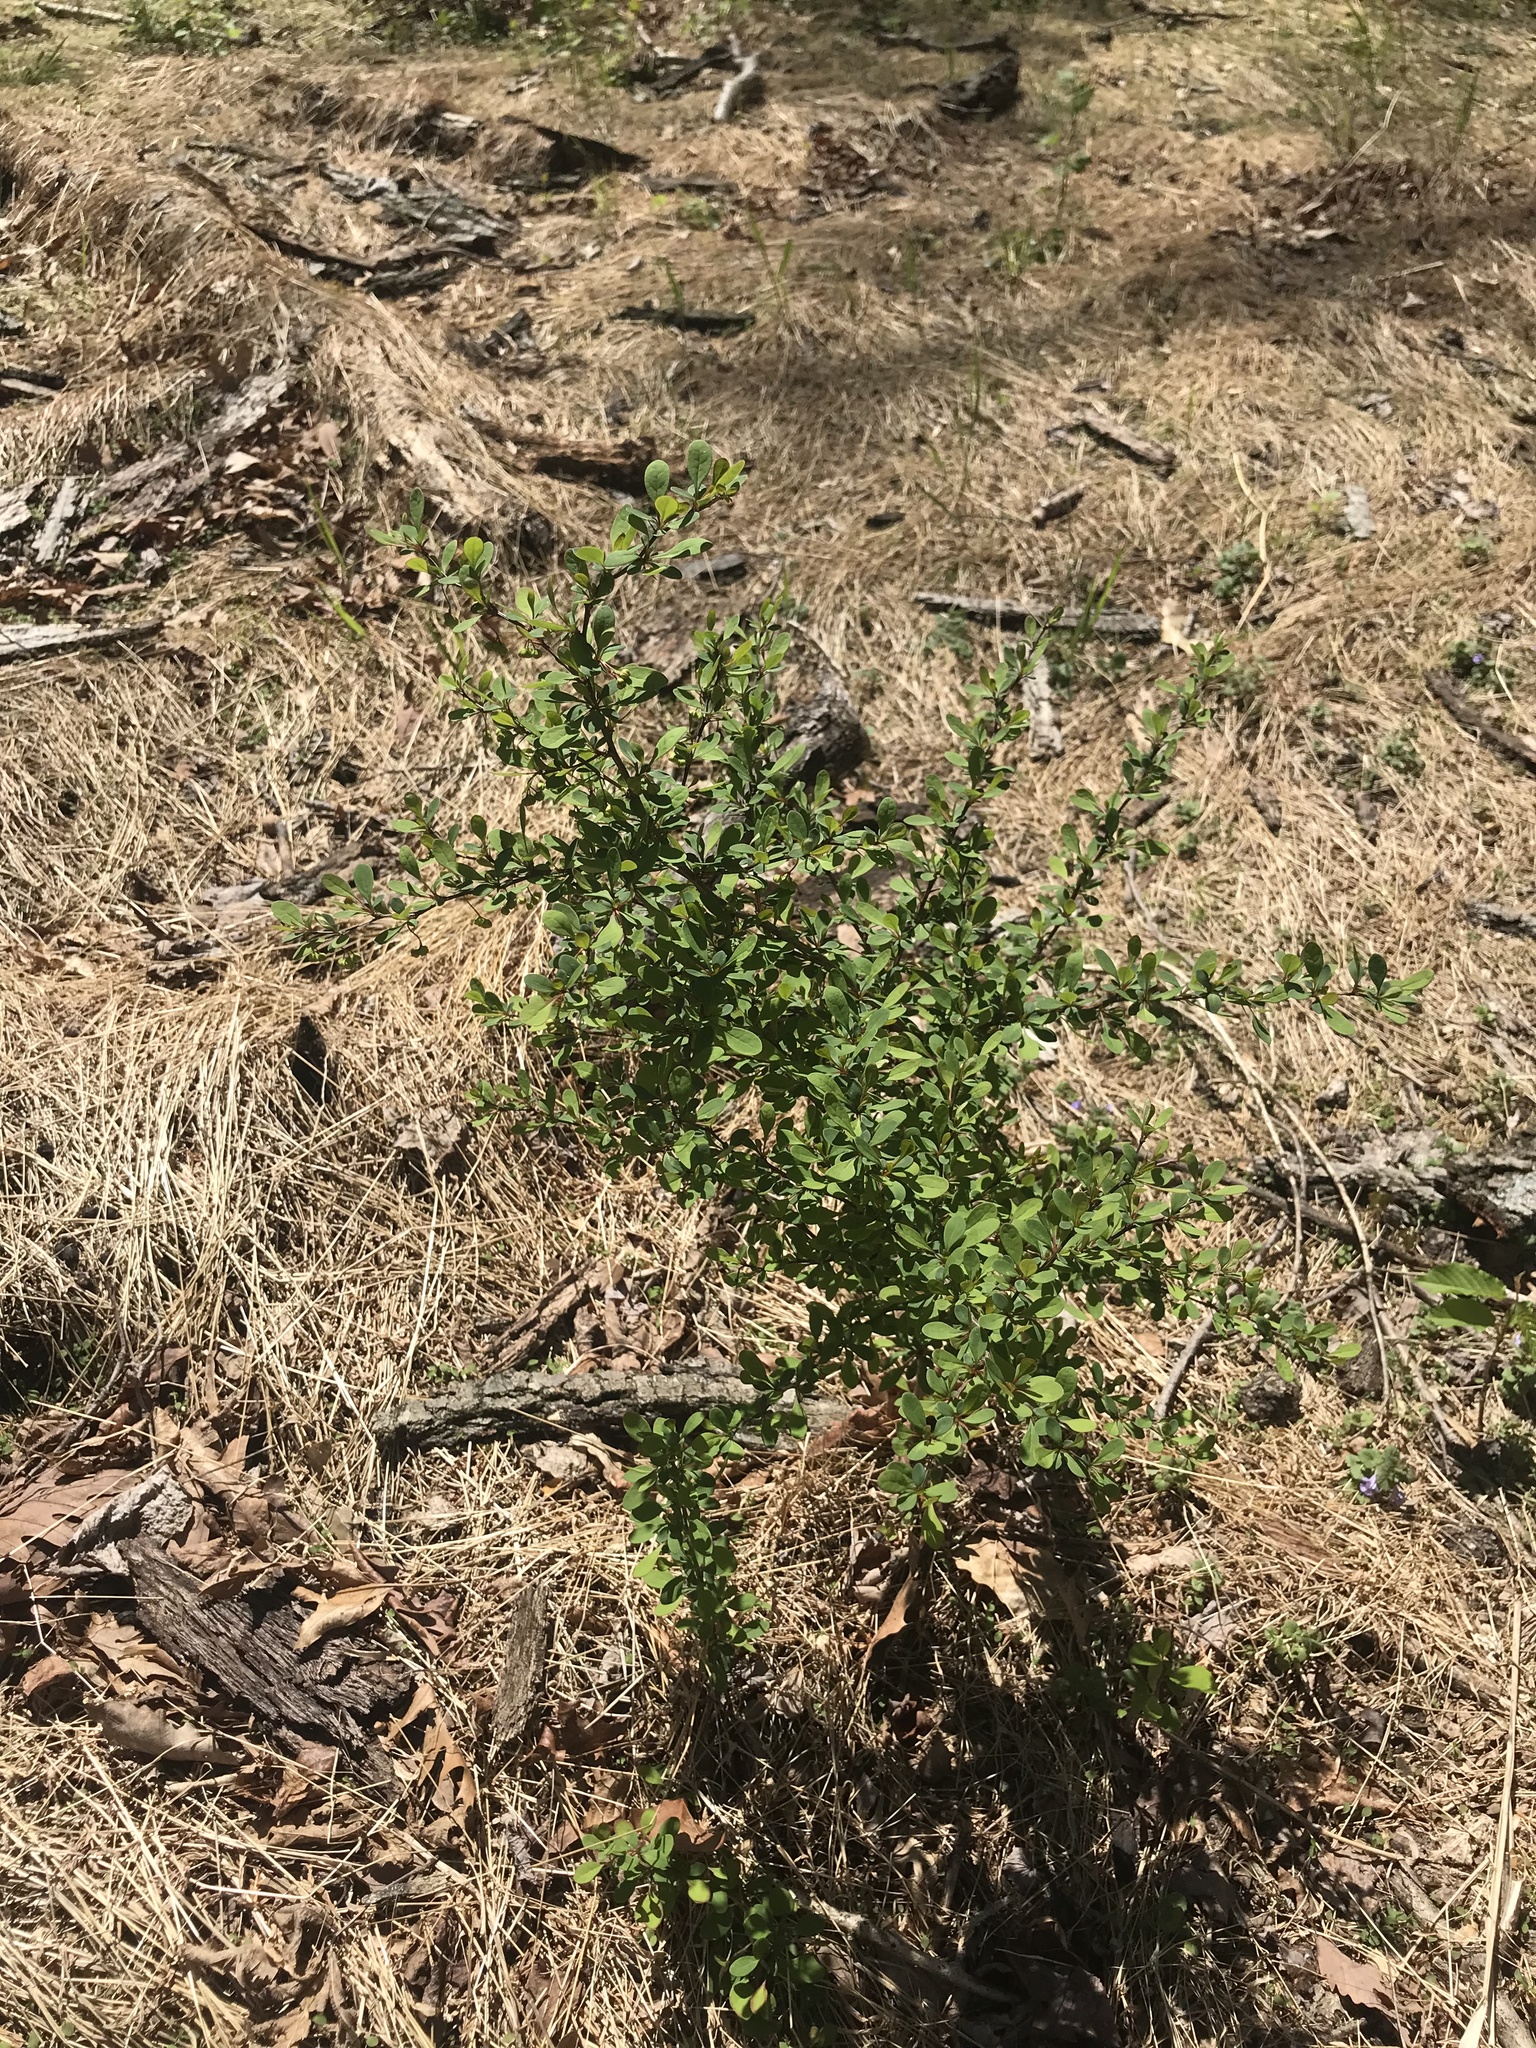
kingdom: Plantae
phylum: Tracheophyta
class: Magnoliopsida
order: Ranunculales
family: Berberidaceae
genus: Berberis
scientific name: Berberis thunbergii
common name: Japanese barberry
